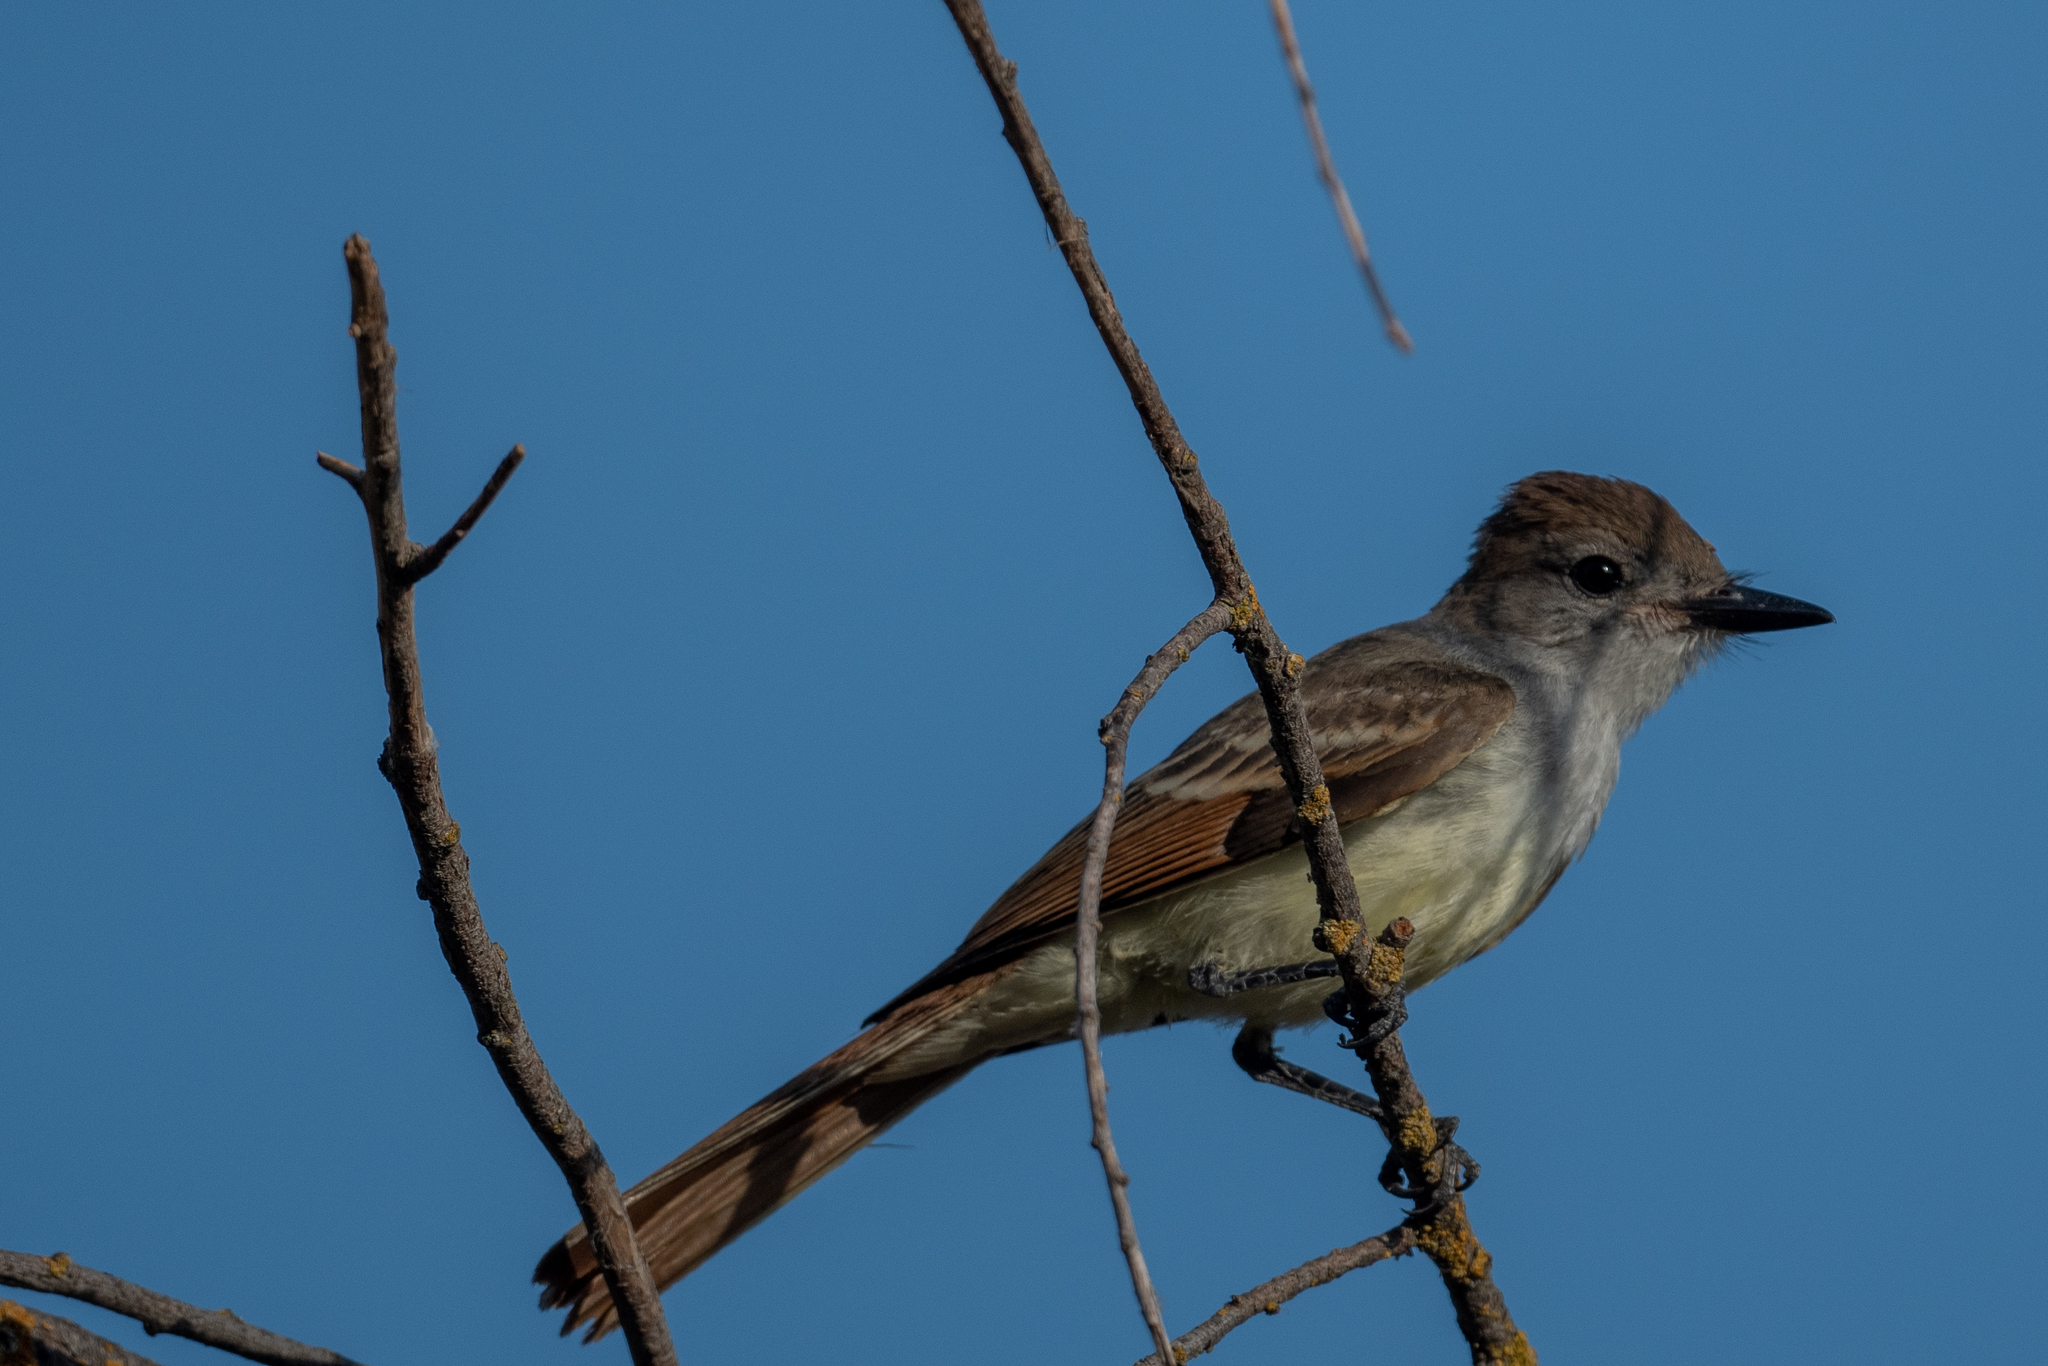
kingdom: Animalia
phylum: Chordata
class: Aves
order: Passeriformes
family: Tyrannidae
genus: Myiarchus
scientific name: Myiarchus cinerascens
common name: Ash-throated flycatcher
